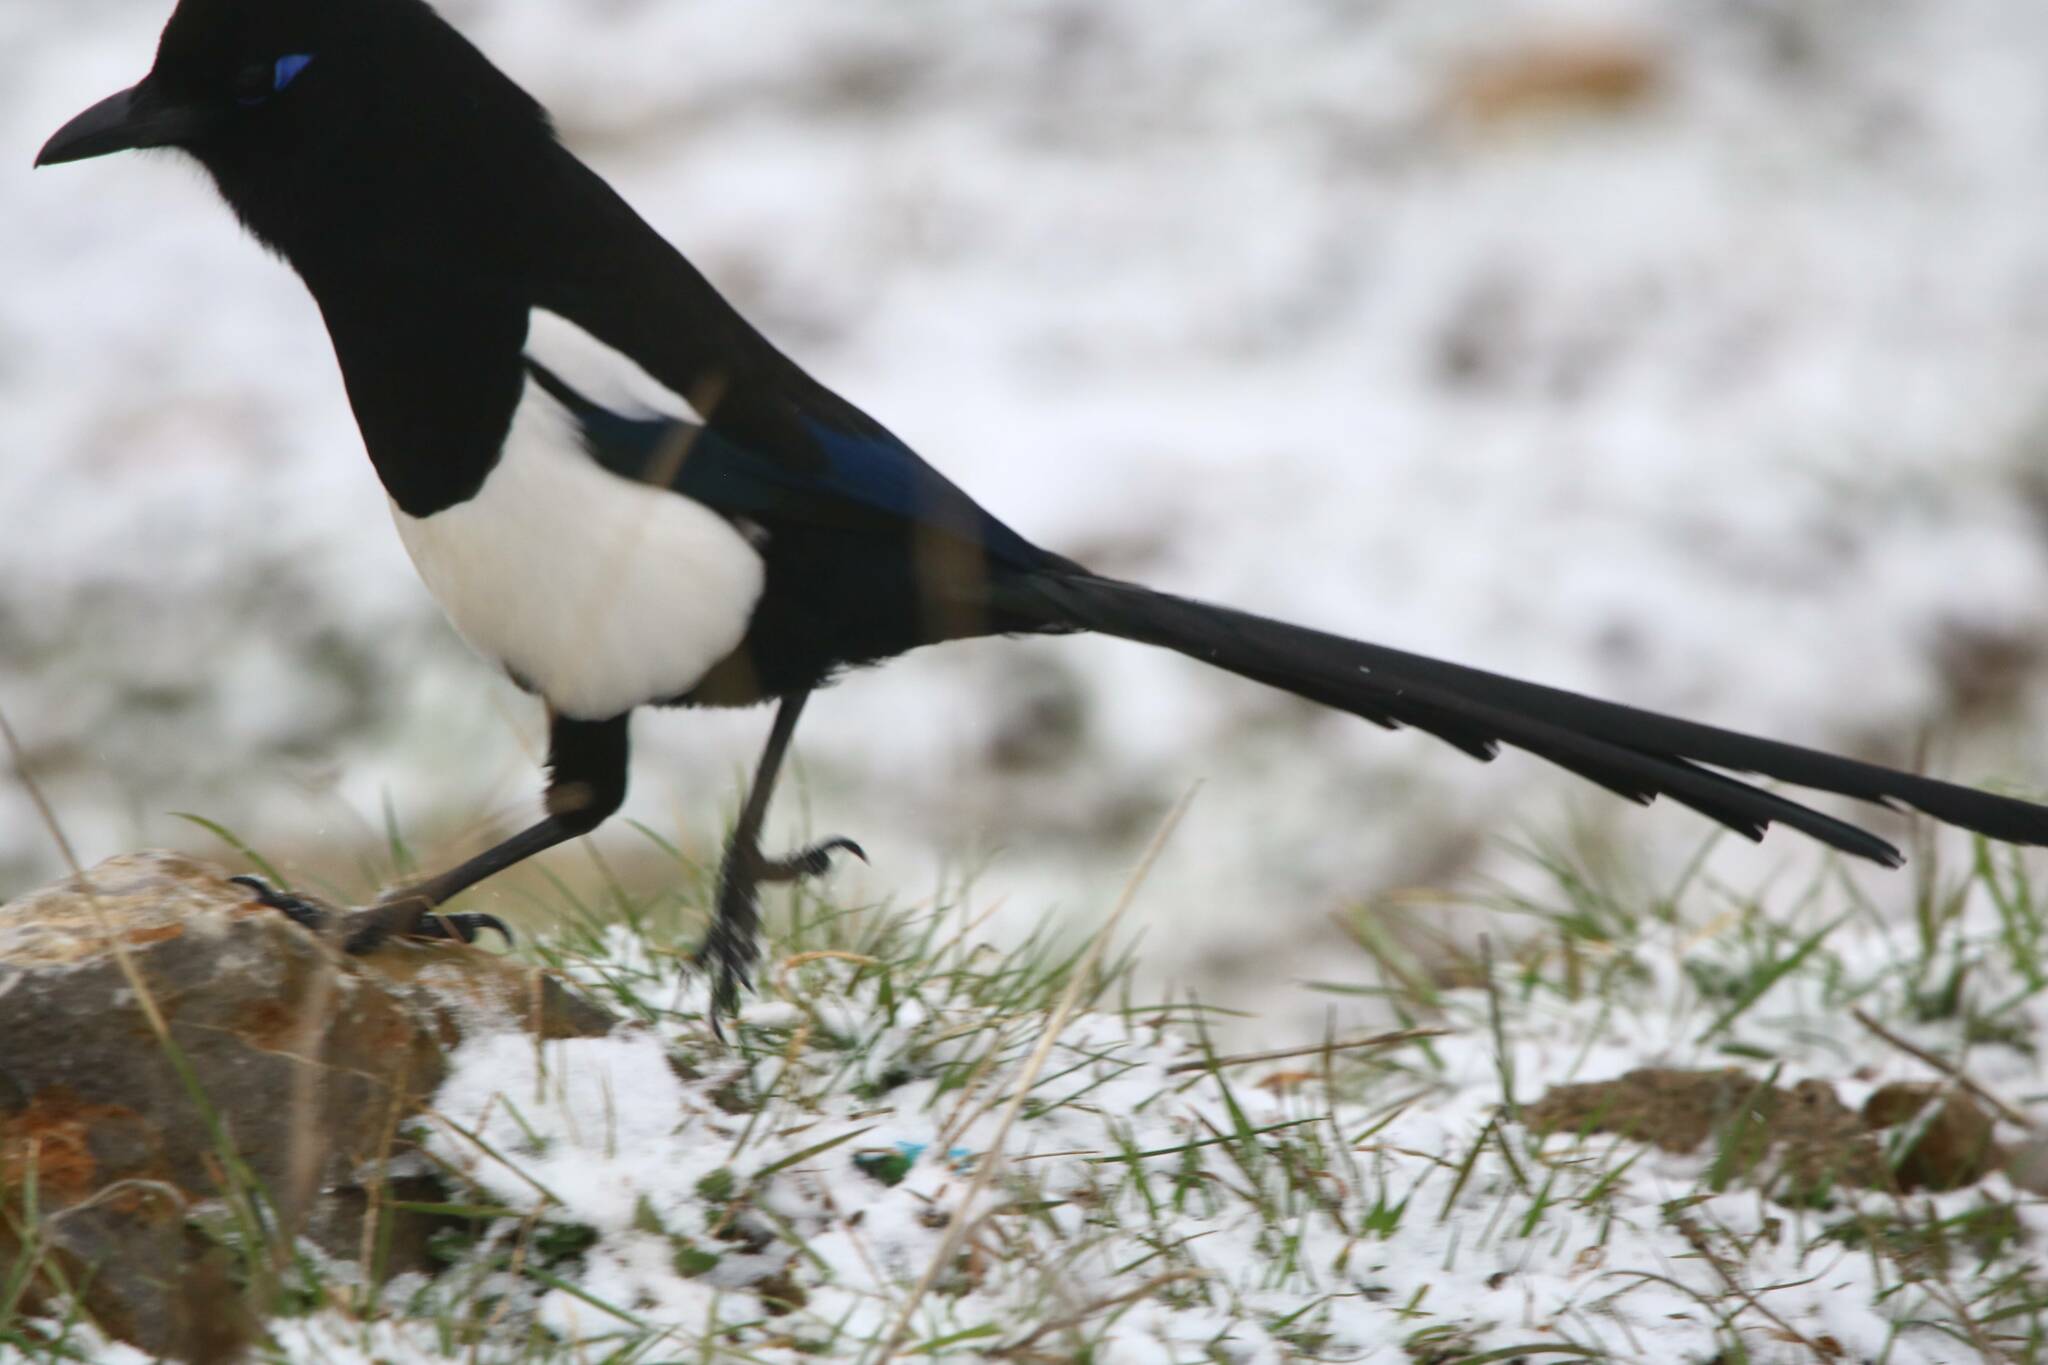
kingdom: Animalia
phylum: Chordata
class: Aves
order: Passeriformes
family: Corvidae
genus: Pica
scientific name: Pica mauritanica
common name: Maghreb magpie
